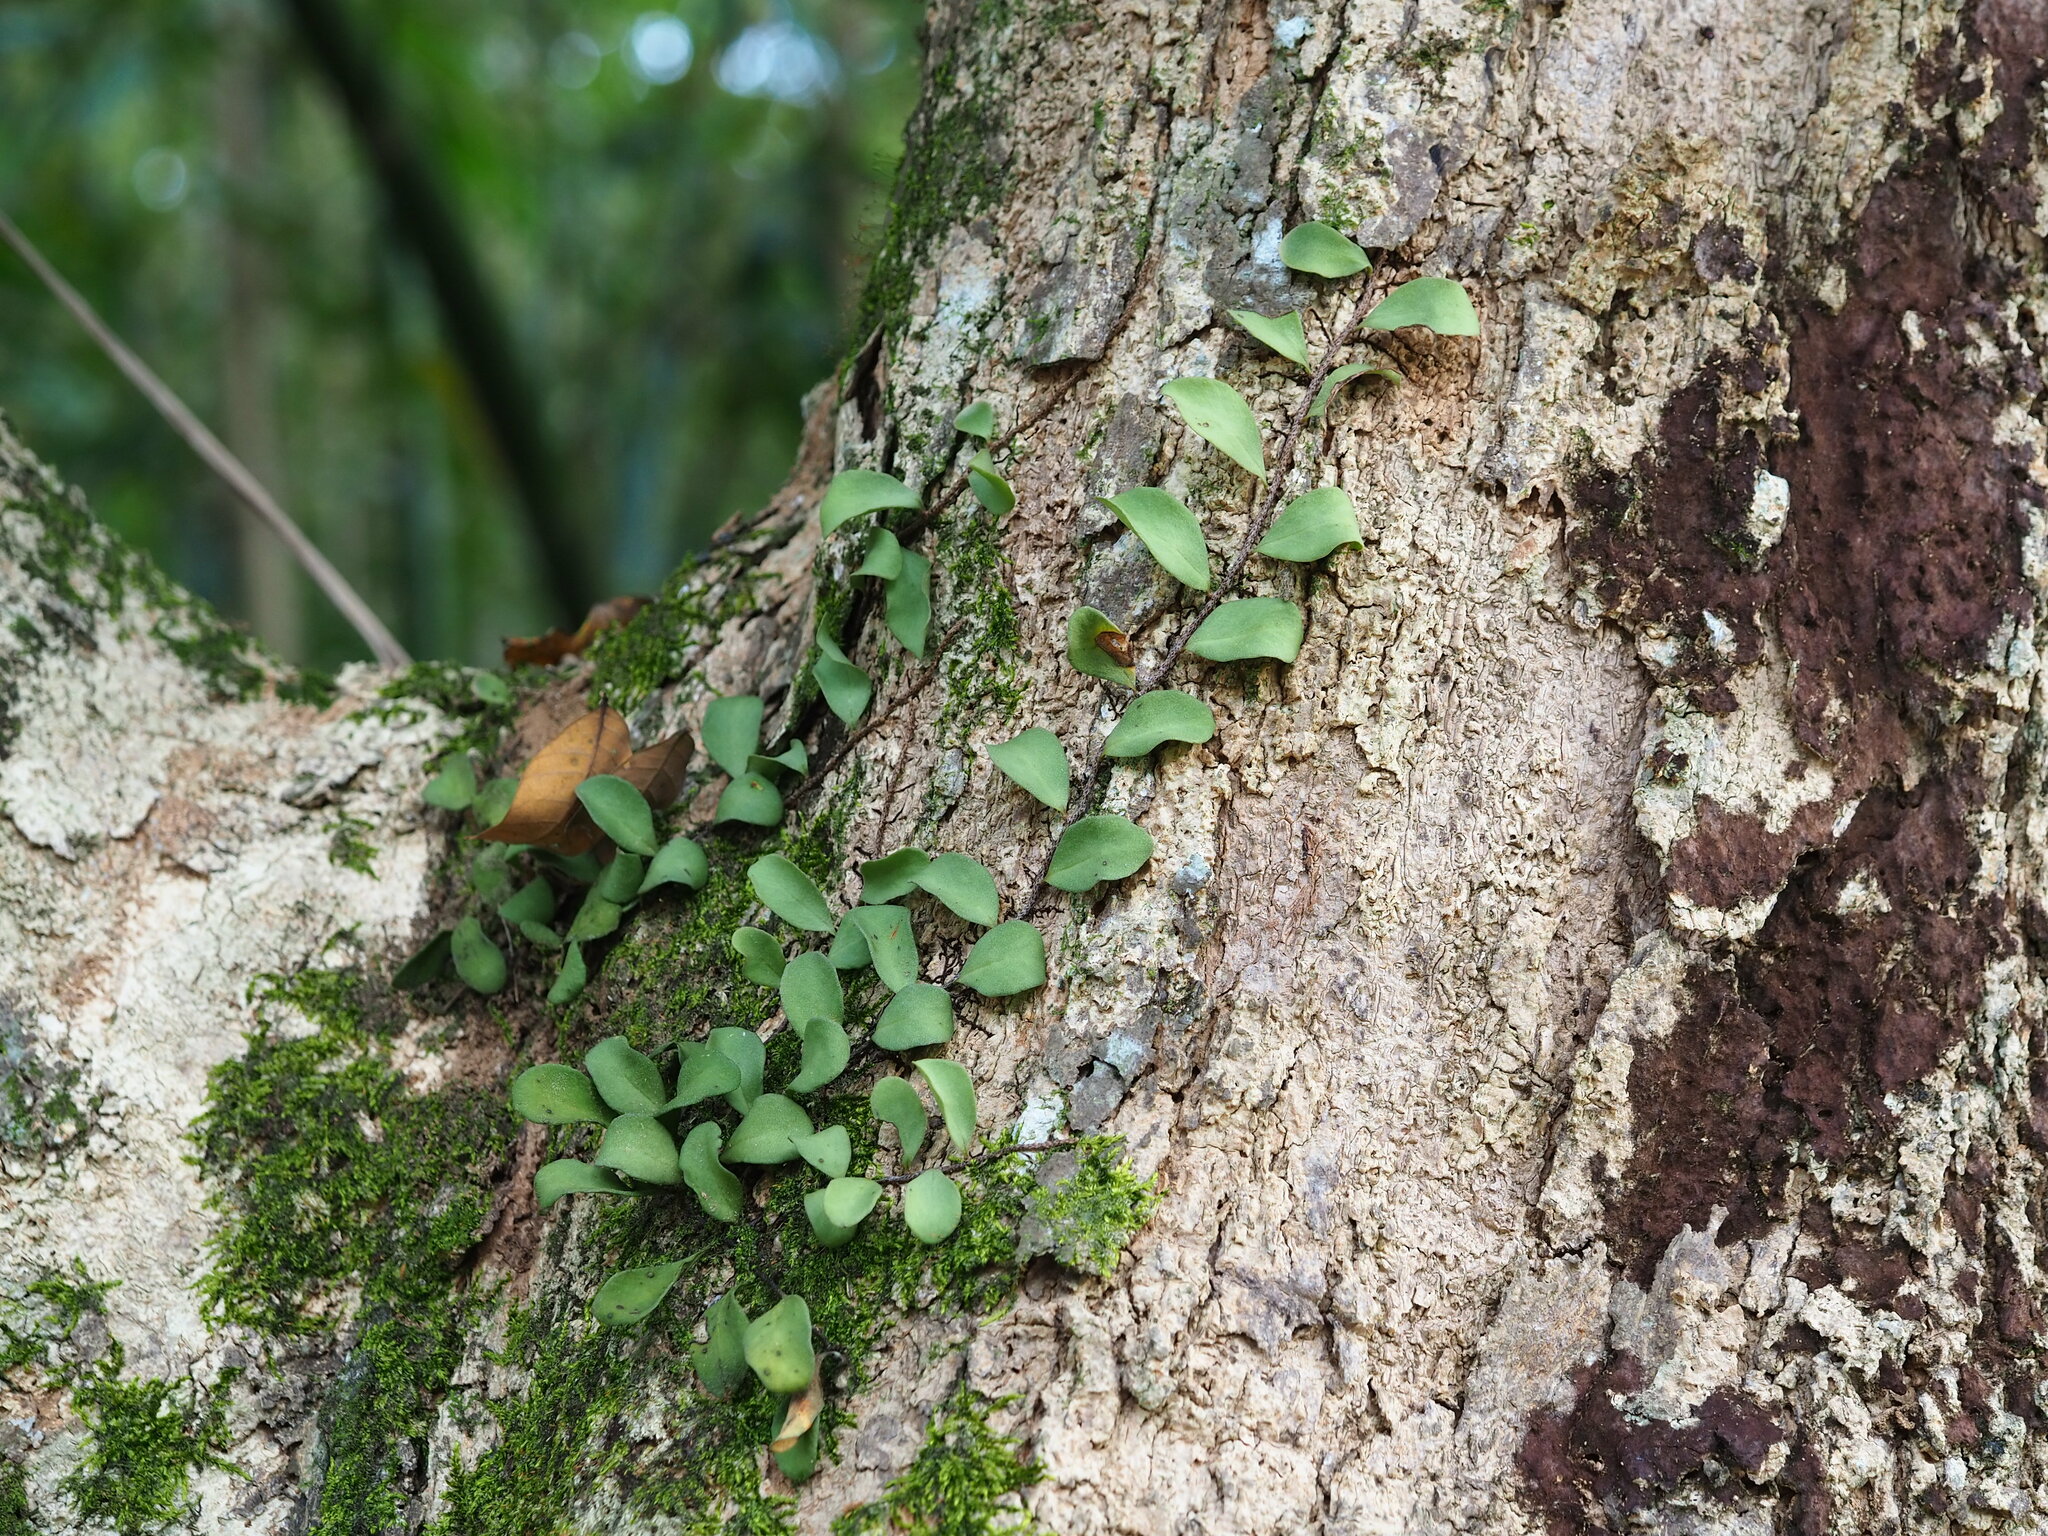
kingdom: Plantae
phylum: Tracheophyta
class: Polypodiopsida
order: Polypodiales
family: Polypodiaceae
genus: Pyrrosia
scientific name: Pyrrosia lanceolata
